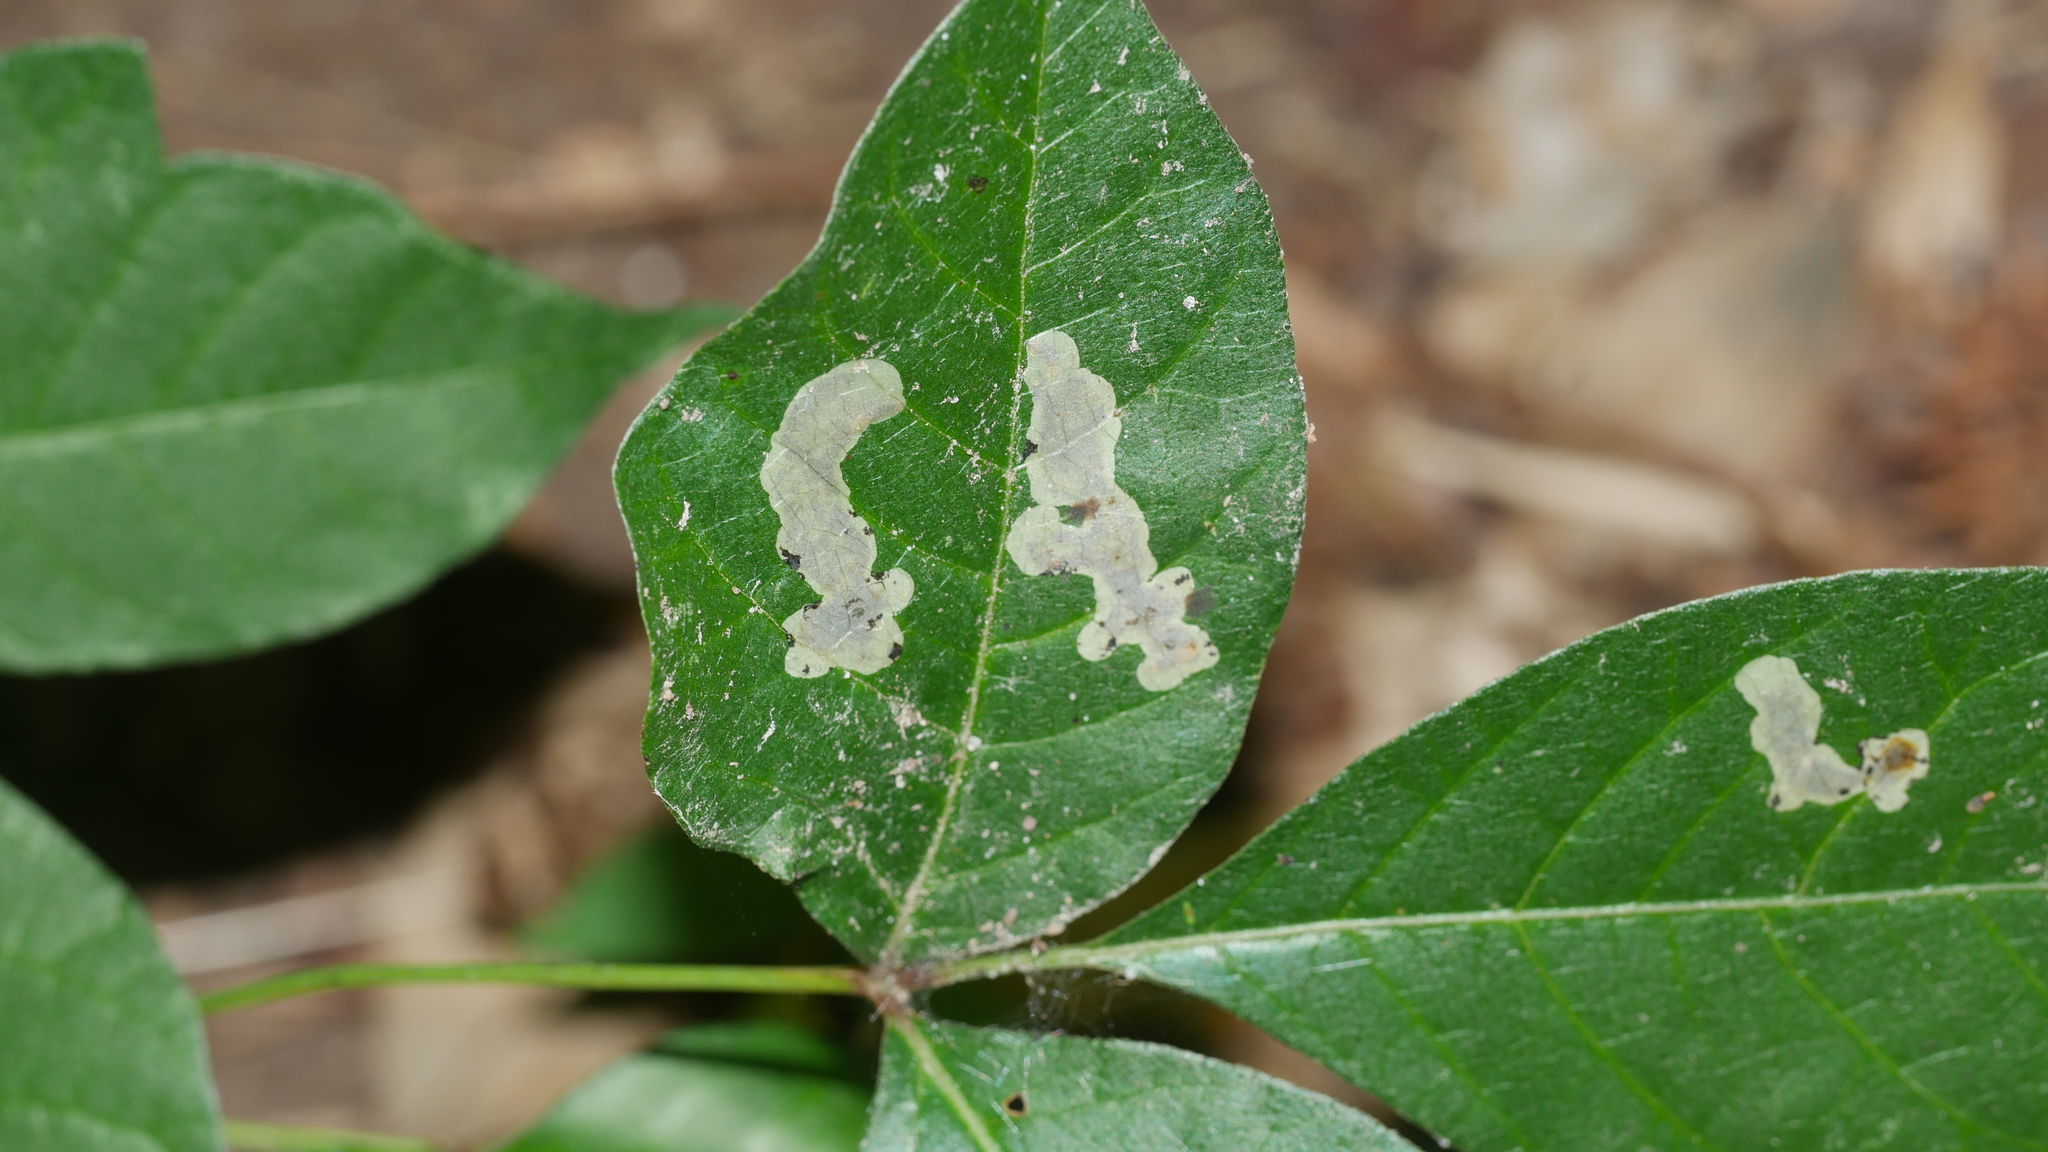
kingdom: Animalia
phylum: Arthropoda
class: Insecta
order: Lepidoptera
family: Gracillariidae
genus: Cameraria
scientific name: Cameraria guttifinitella
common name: Poison ivy leaf-miner moth
